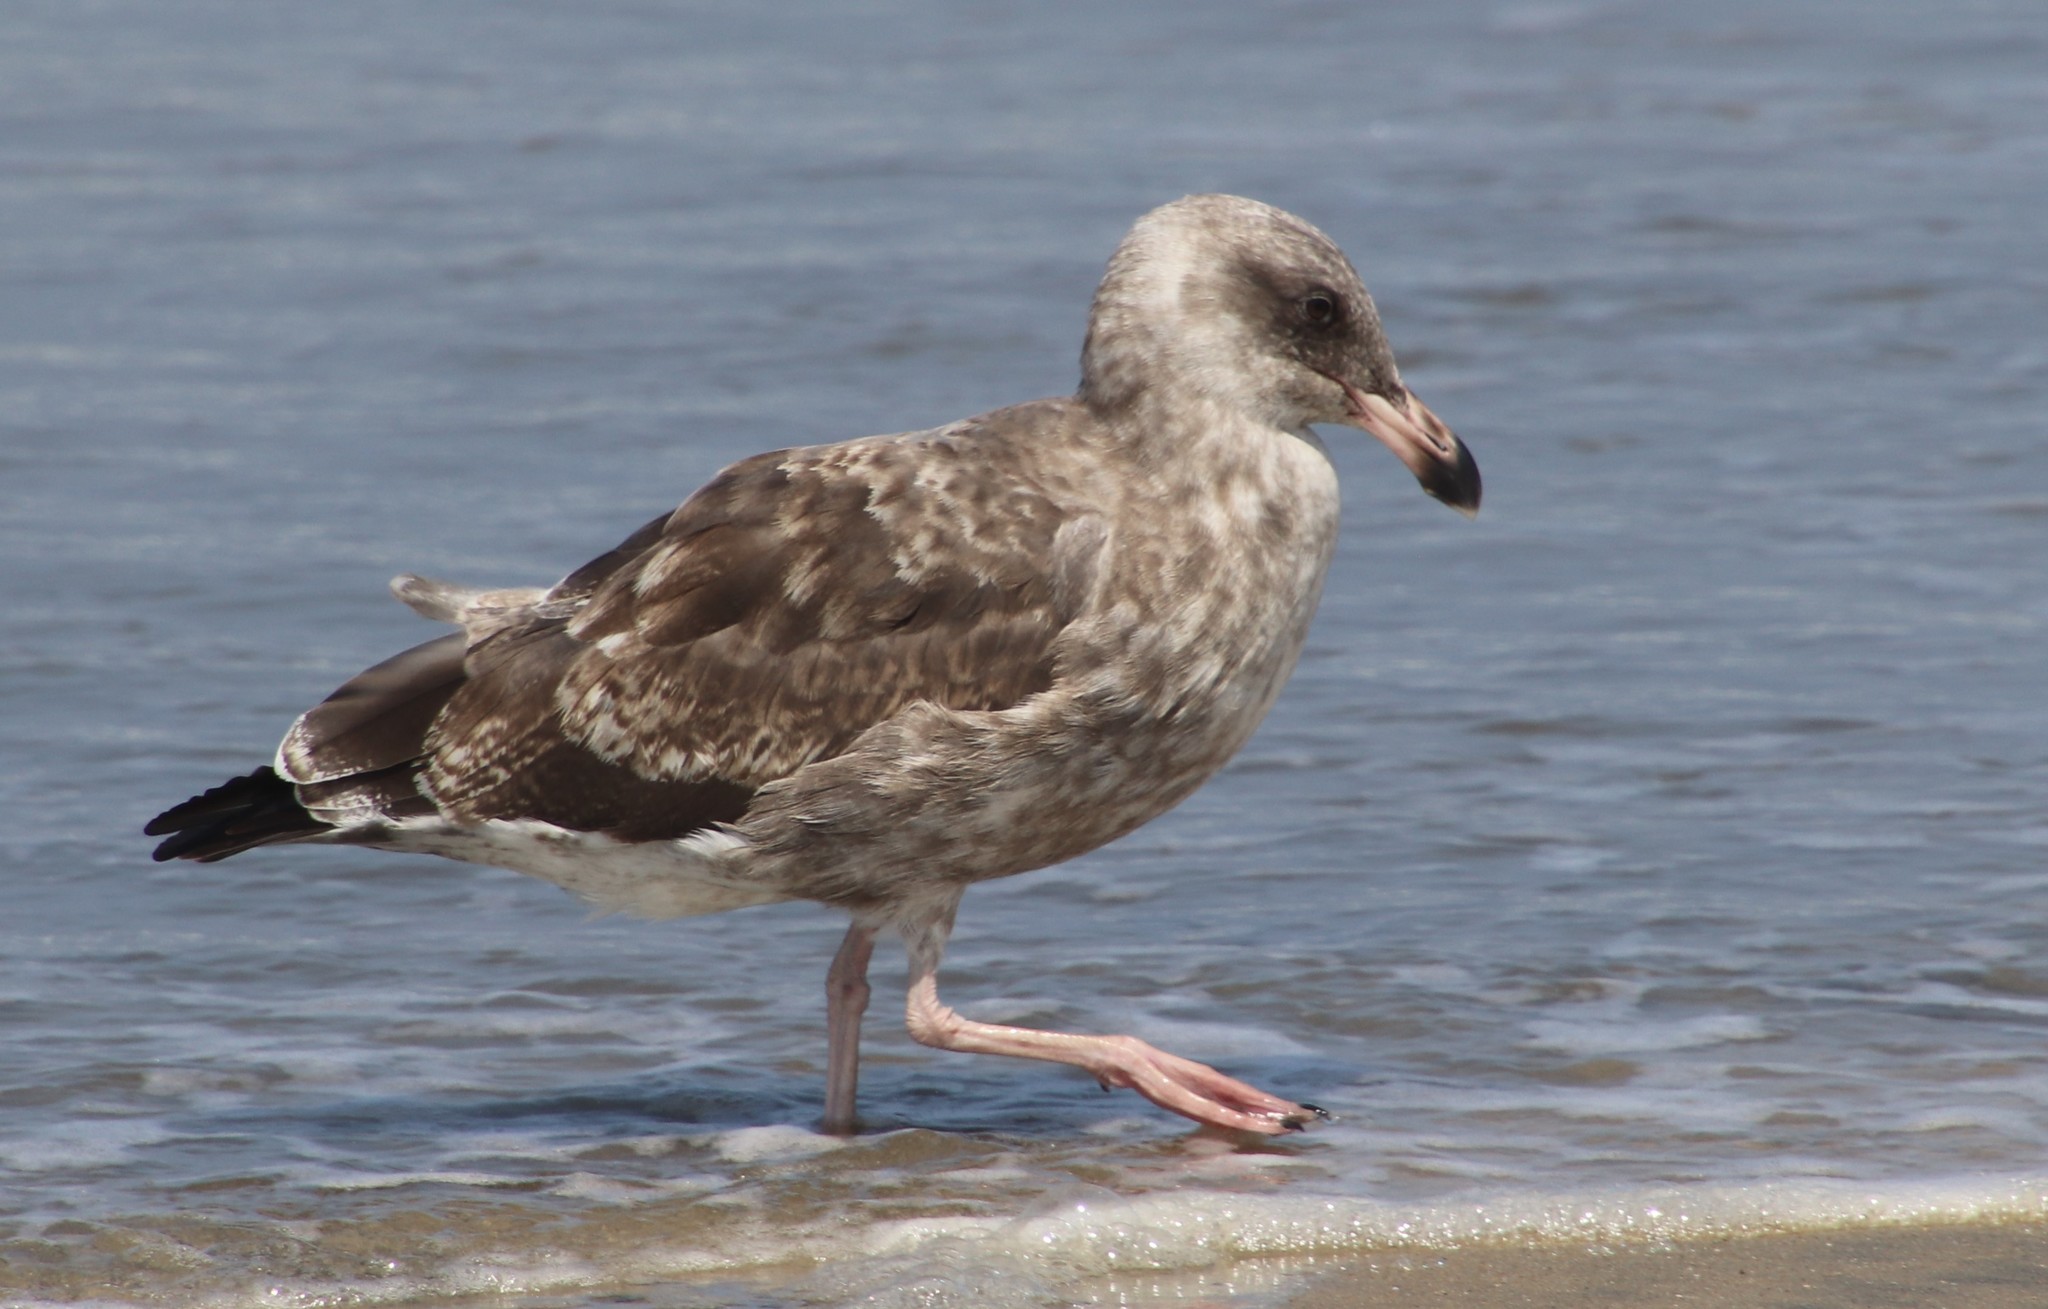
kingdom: Animalia
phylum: Chordata
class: Aves
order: Charadriiformes
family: Laridae
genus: Larus
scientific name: Larus occidentalis
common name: Western gull
